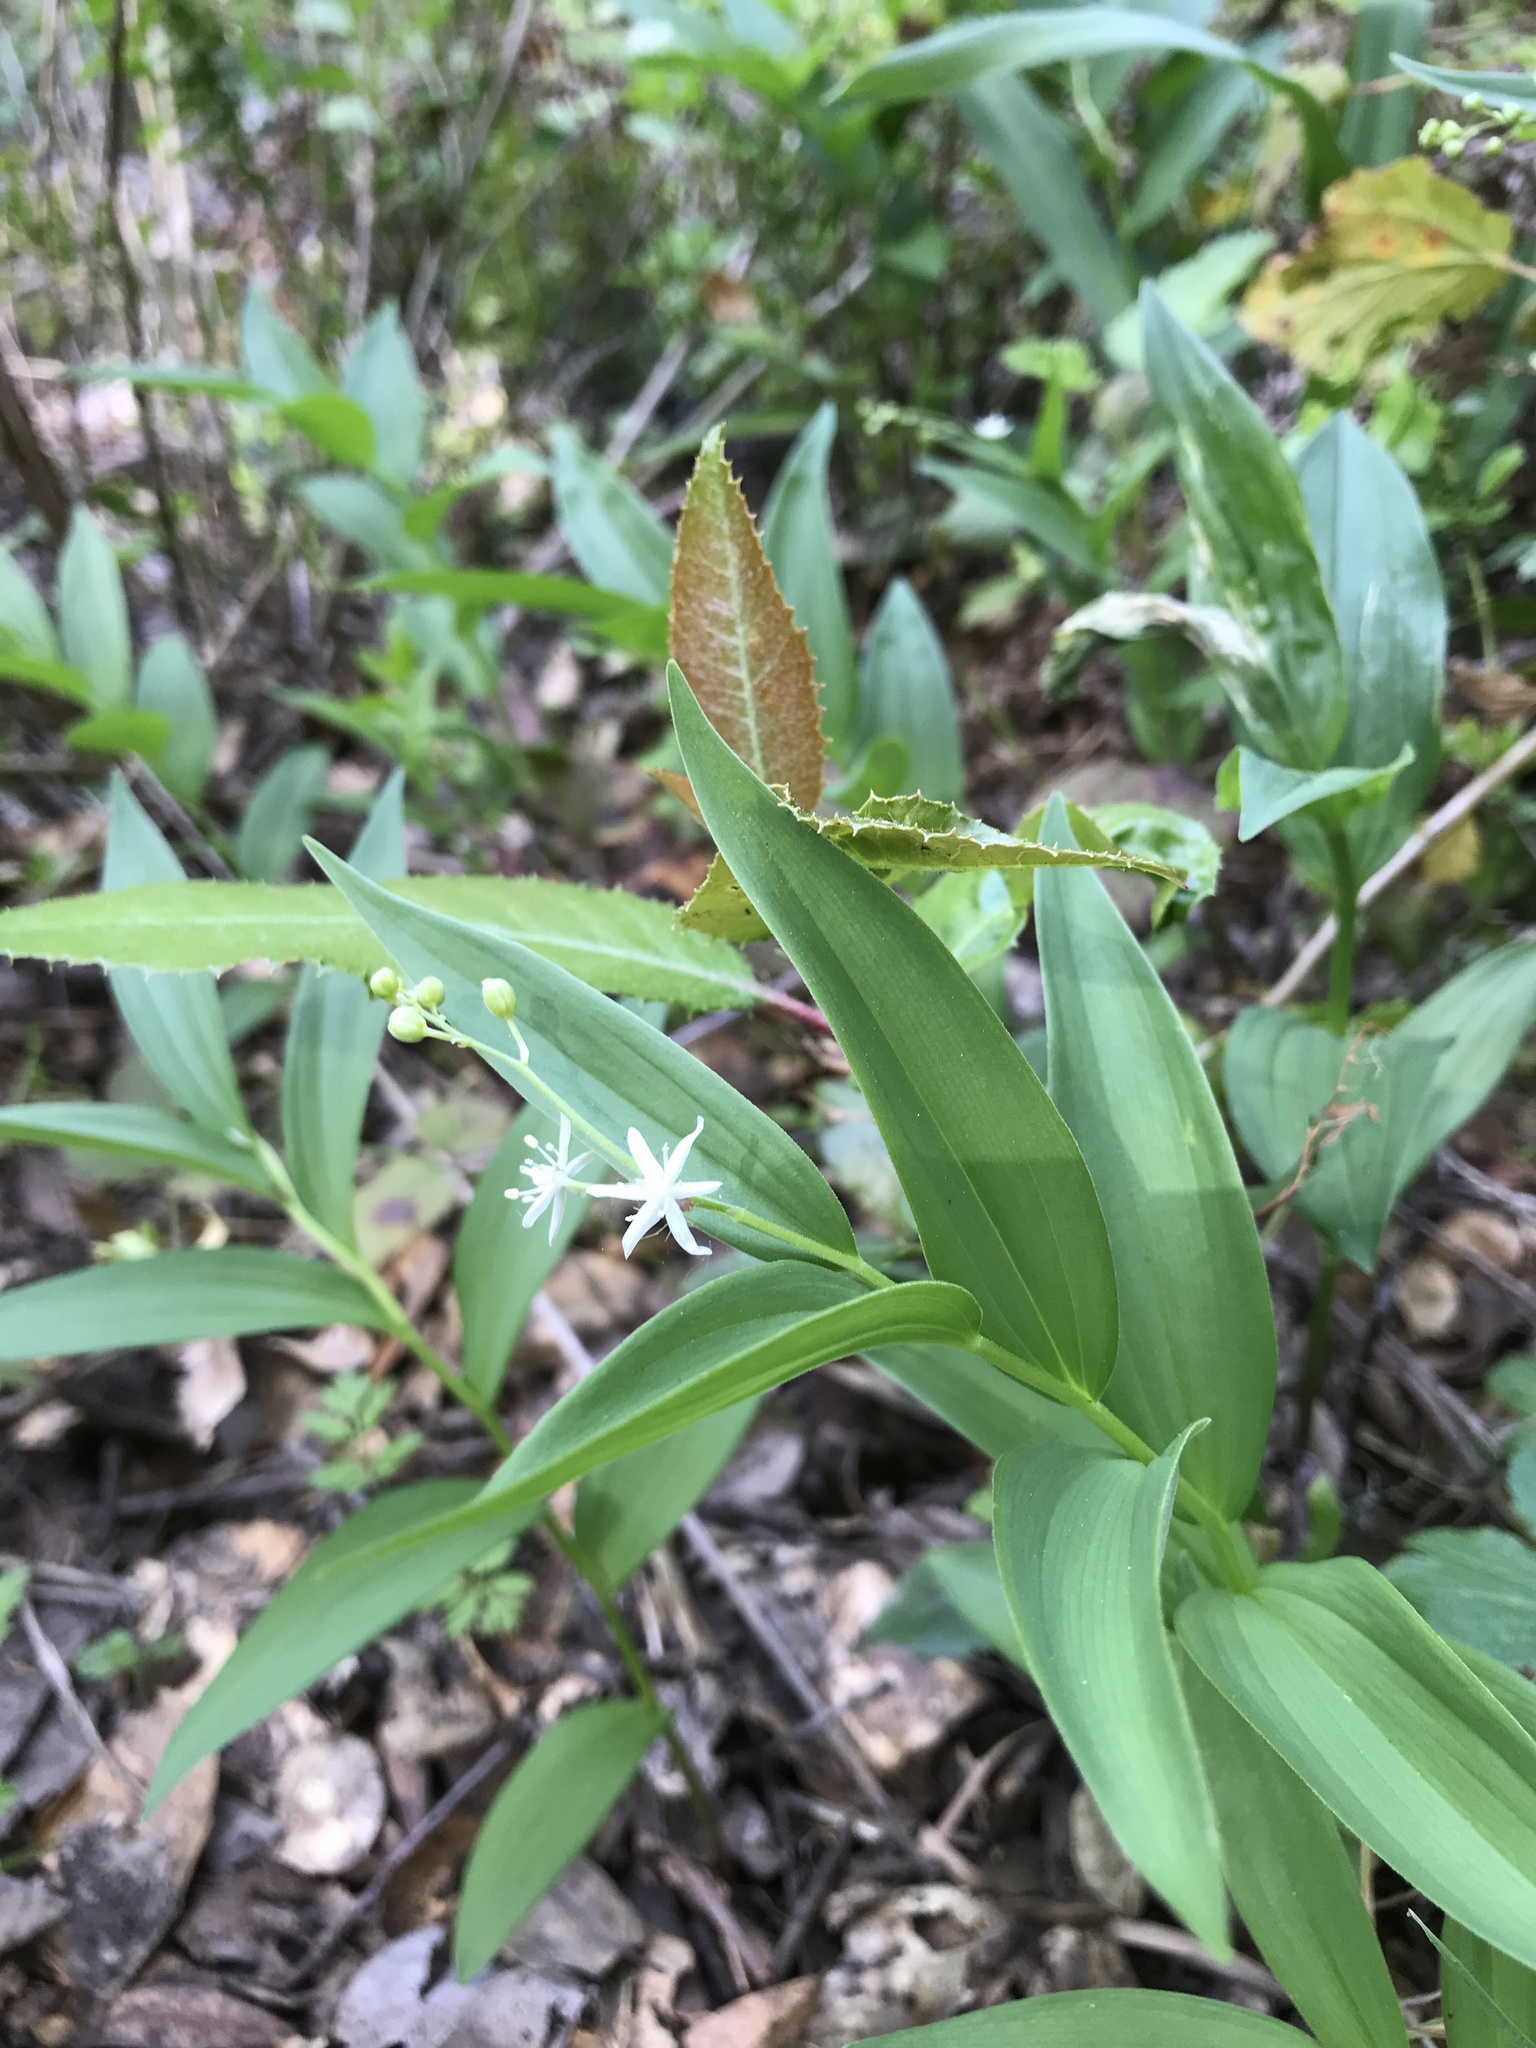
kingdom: Plantae
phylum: Tracheophyta
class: Liliopsida
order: Asparagales
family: Asparagaceae
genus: Maianthemum
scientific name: Maianthemum stellatum
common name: Little false solomon's seal
